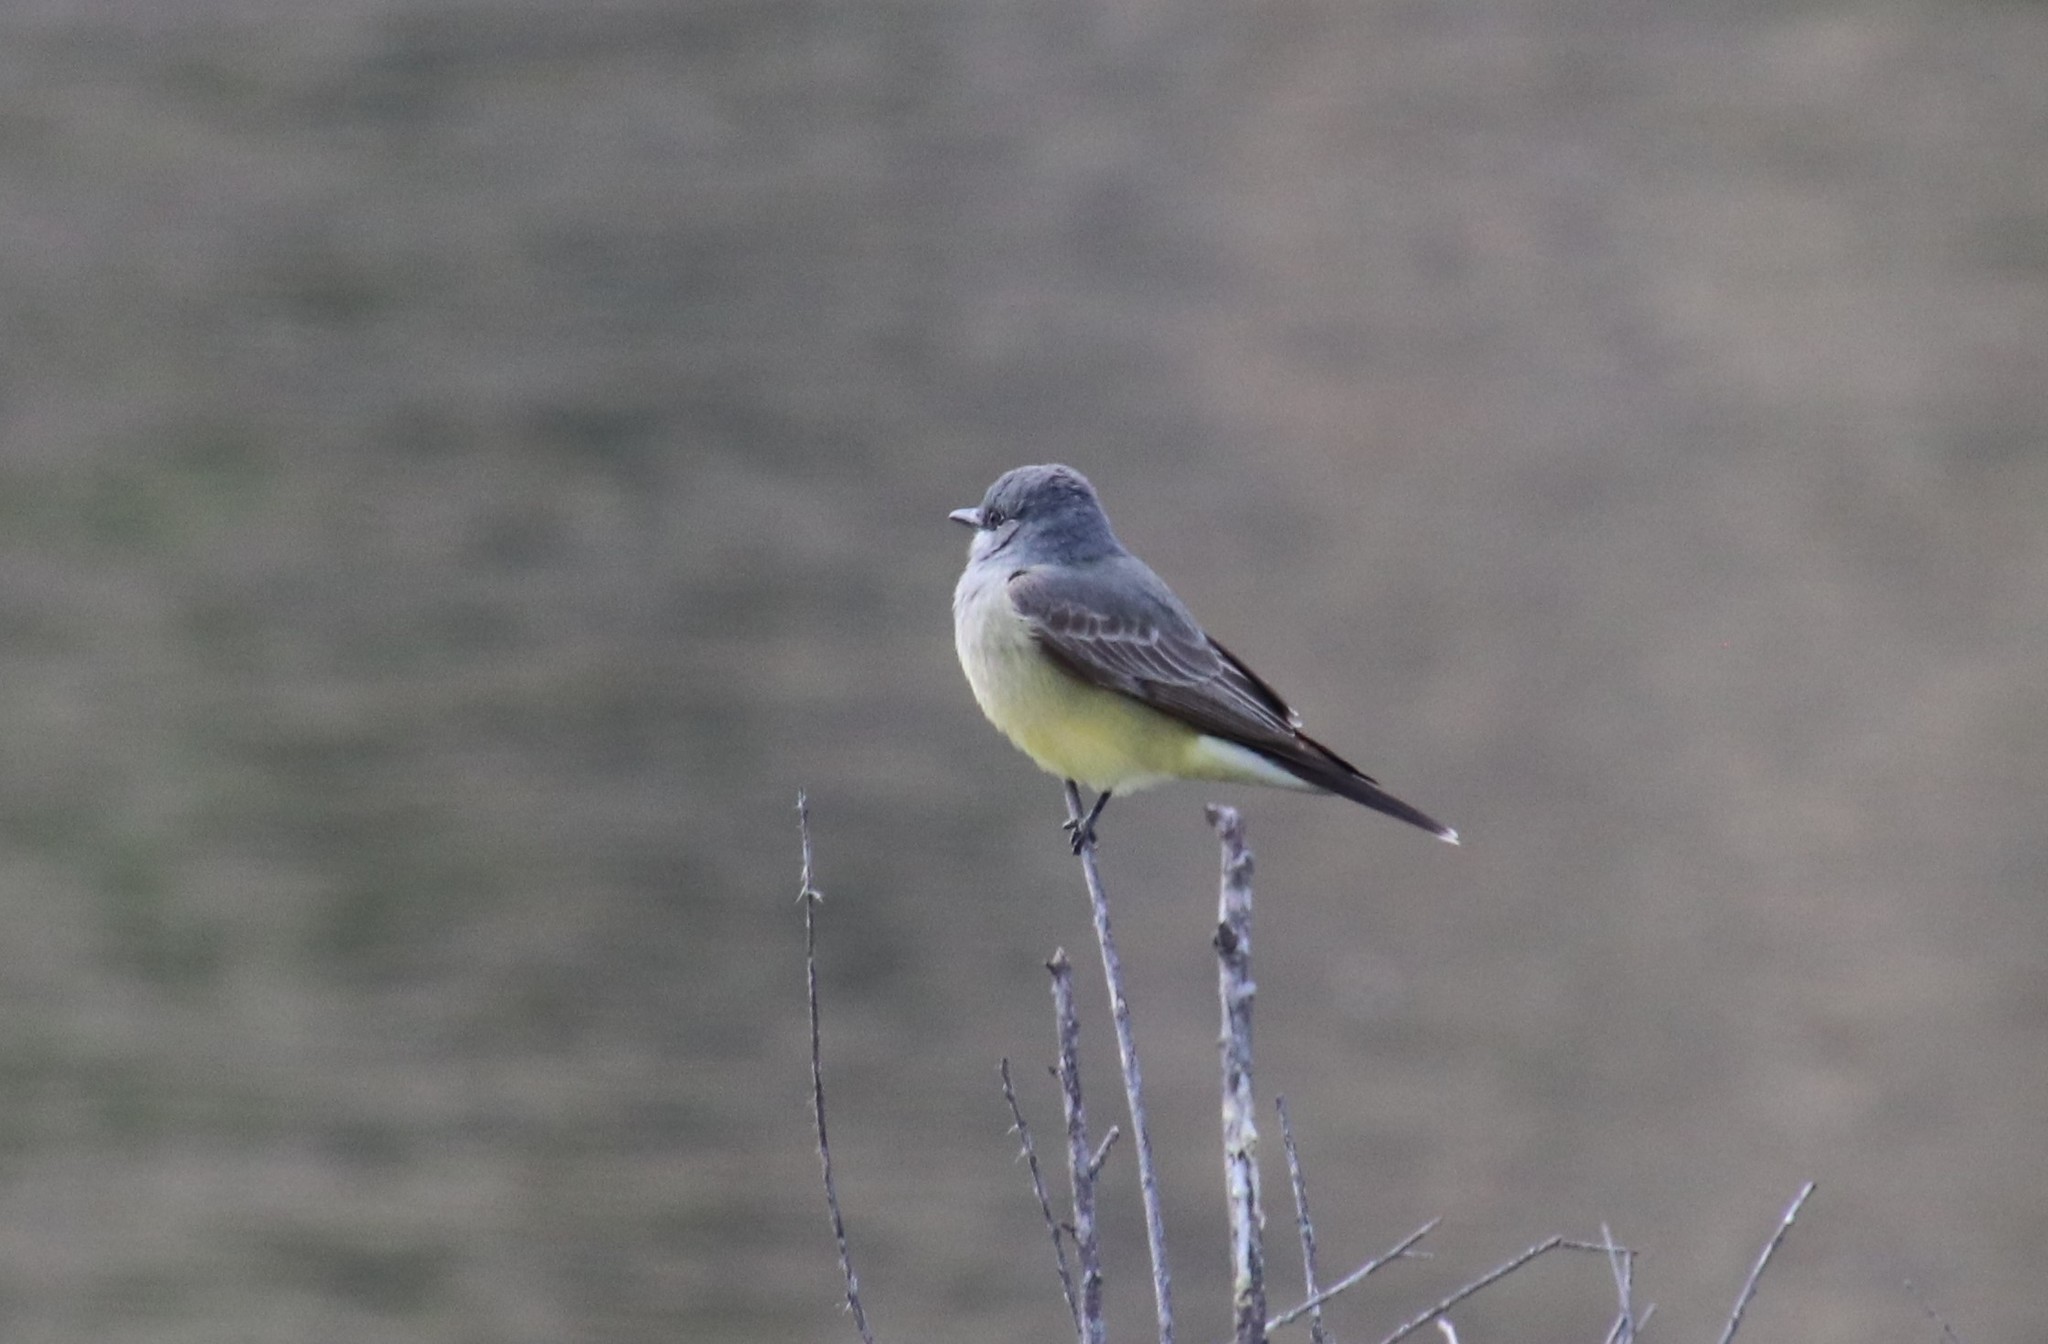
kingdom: Animalia
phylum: Chordata
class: Aves
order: Passeriformes
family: Tyrannidae
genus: Tyrannus
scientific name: Tyrannus vociferans
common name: Cassin's kingbird
